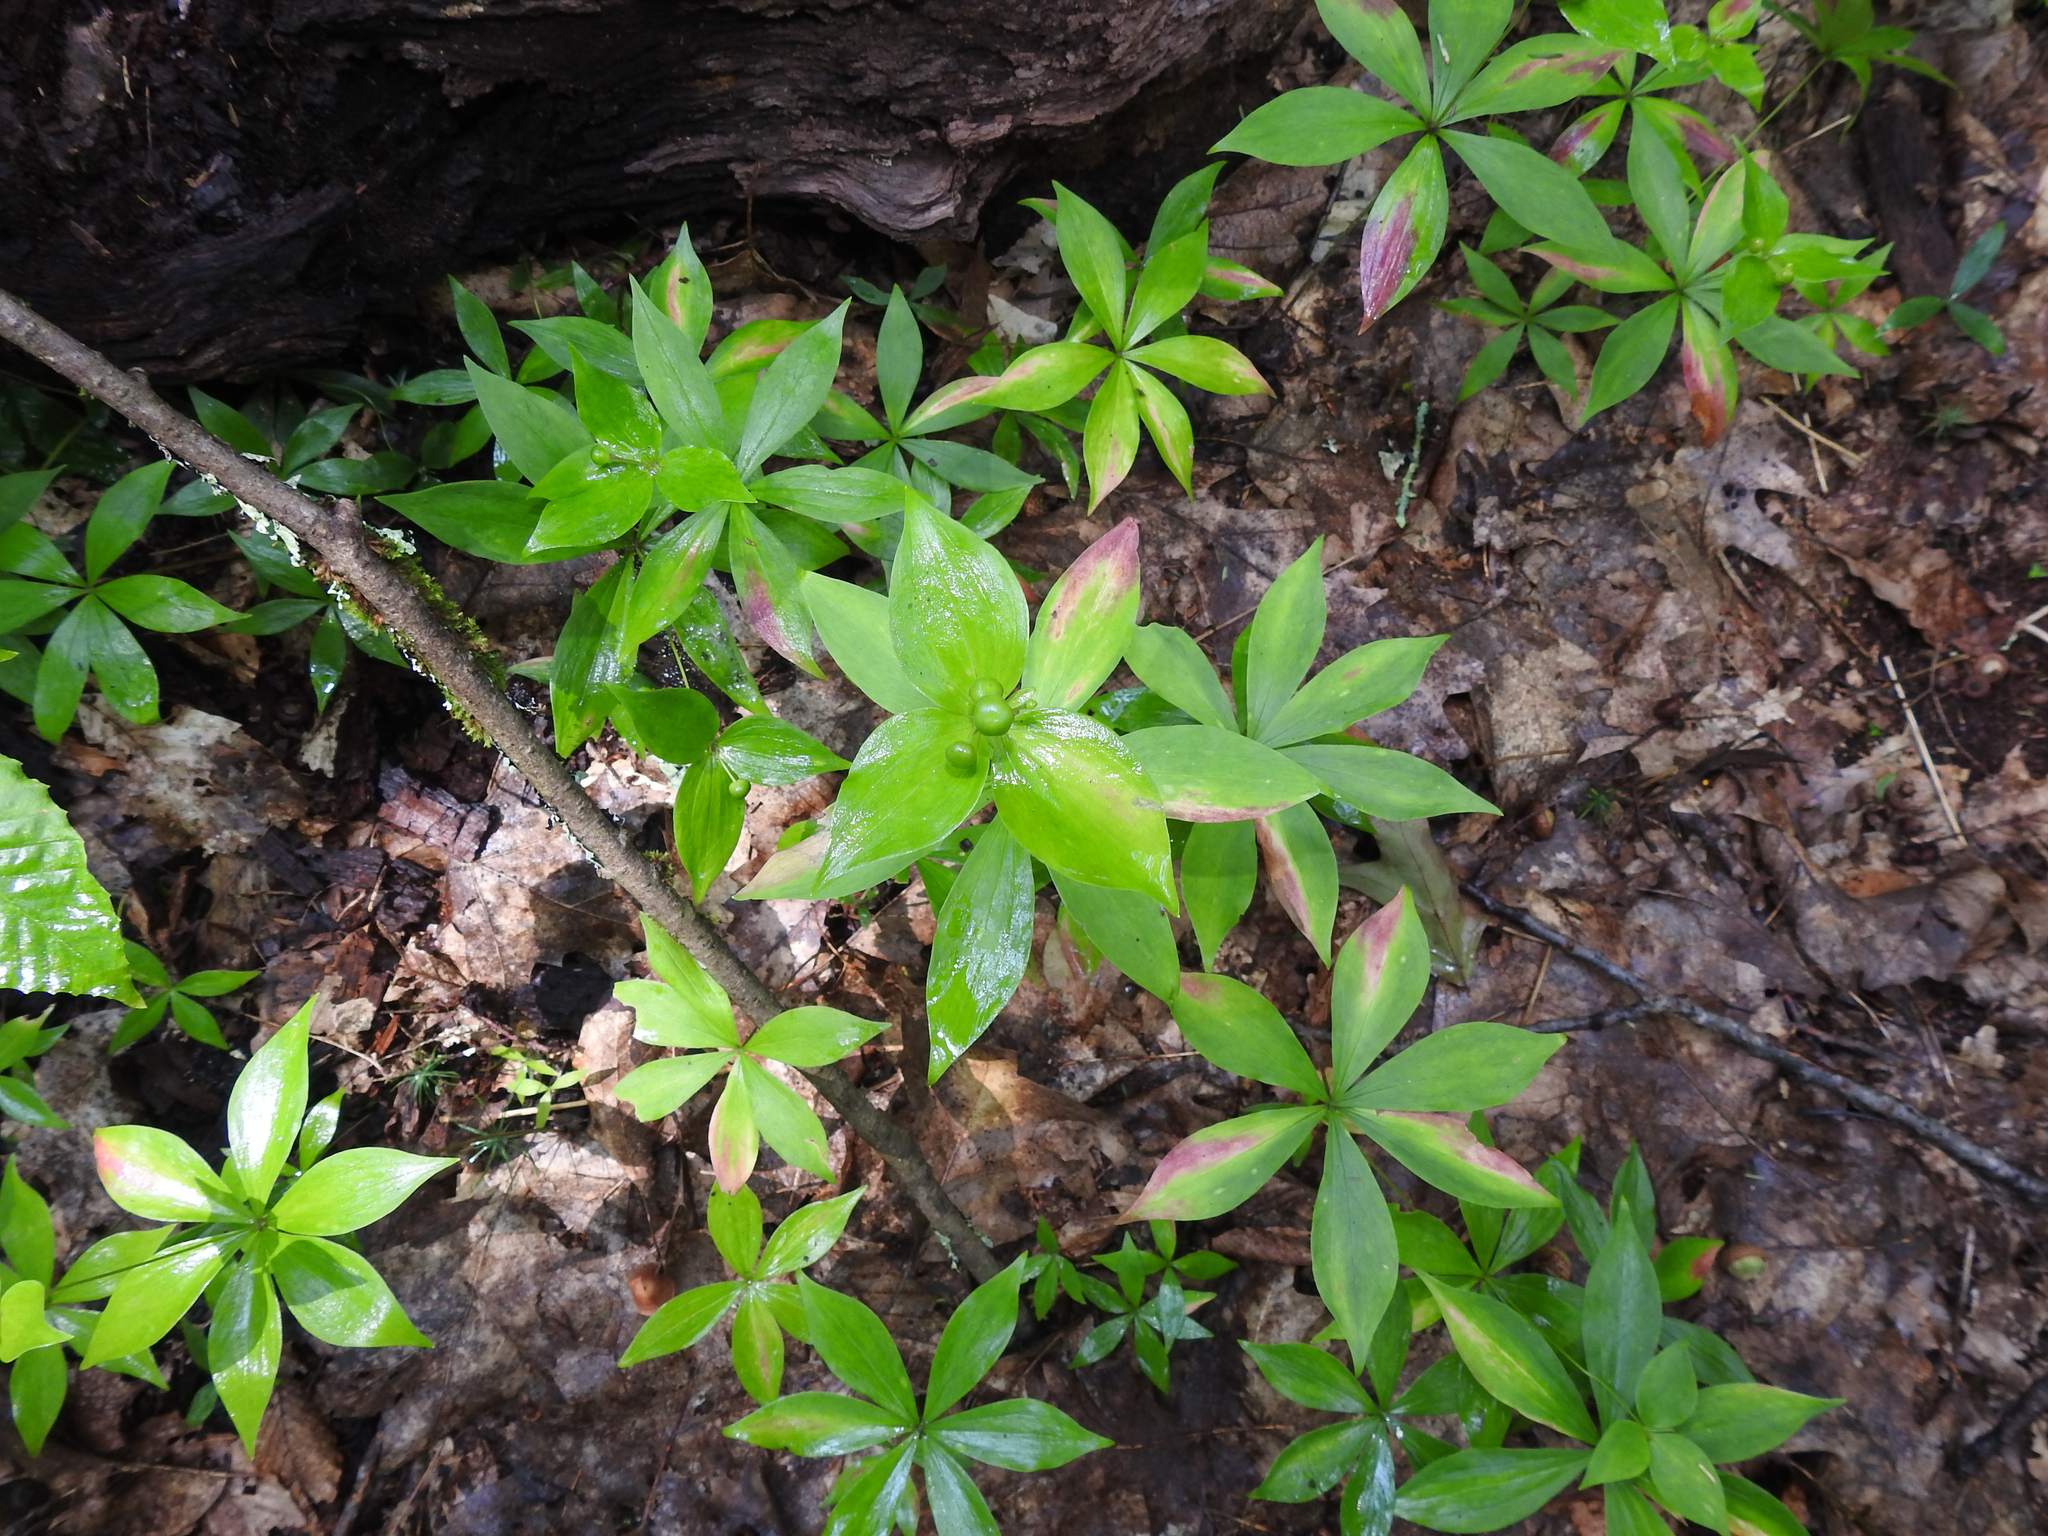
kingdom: Plantae
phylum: Tracheophyta
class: Liliopsida
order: Liliales
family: Liliaceae
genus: Medeola
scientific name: Medeola virginiana
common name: Indian cucumber-root
